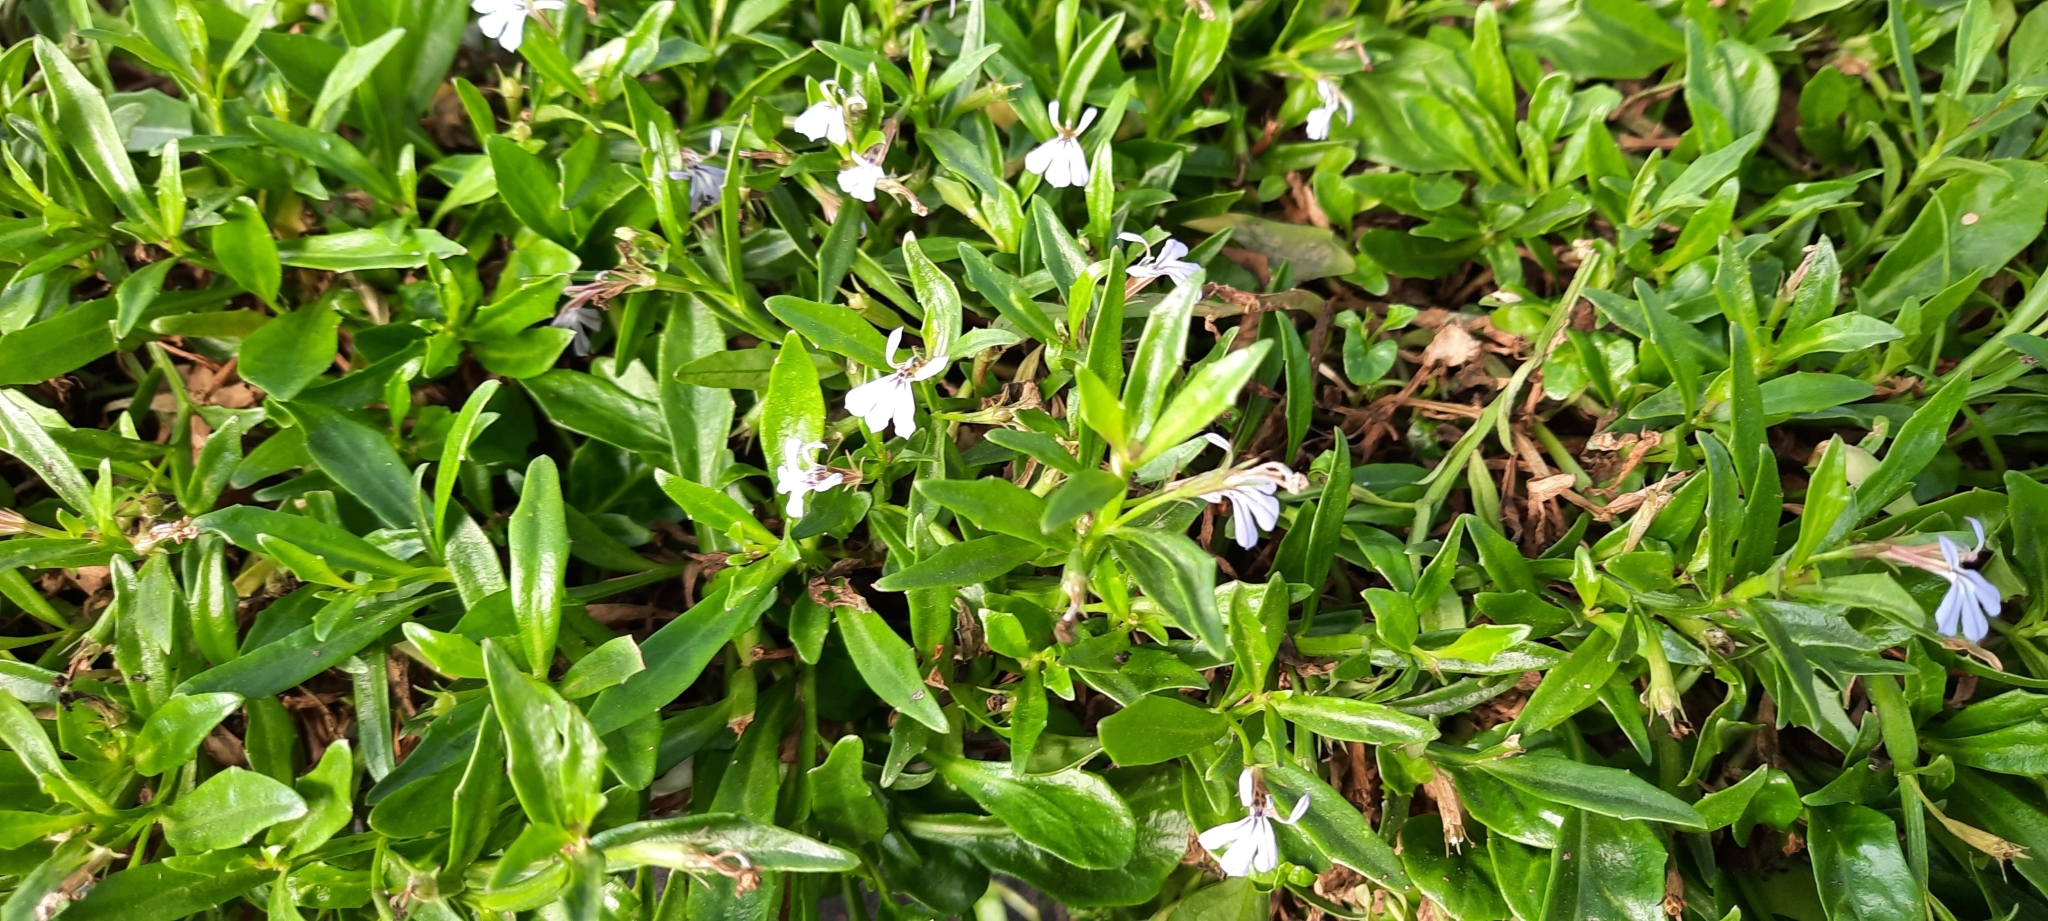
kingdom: Plantae
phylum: Tracheophyta
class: Magnoliopsida
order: Asterales
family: Campanulaceae
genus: Lobelia
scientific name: Lobelia anceps
